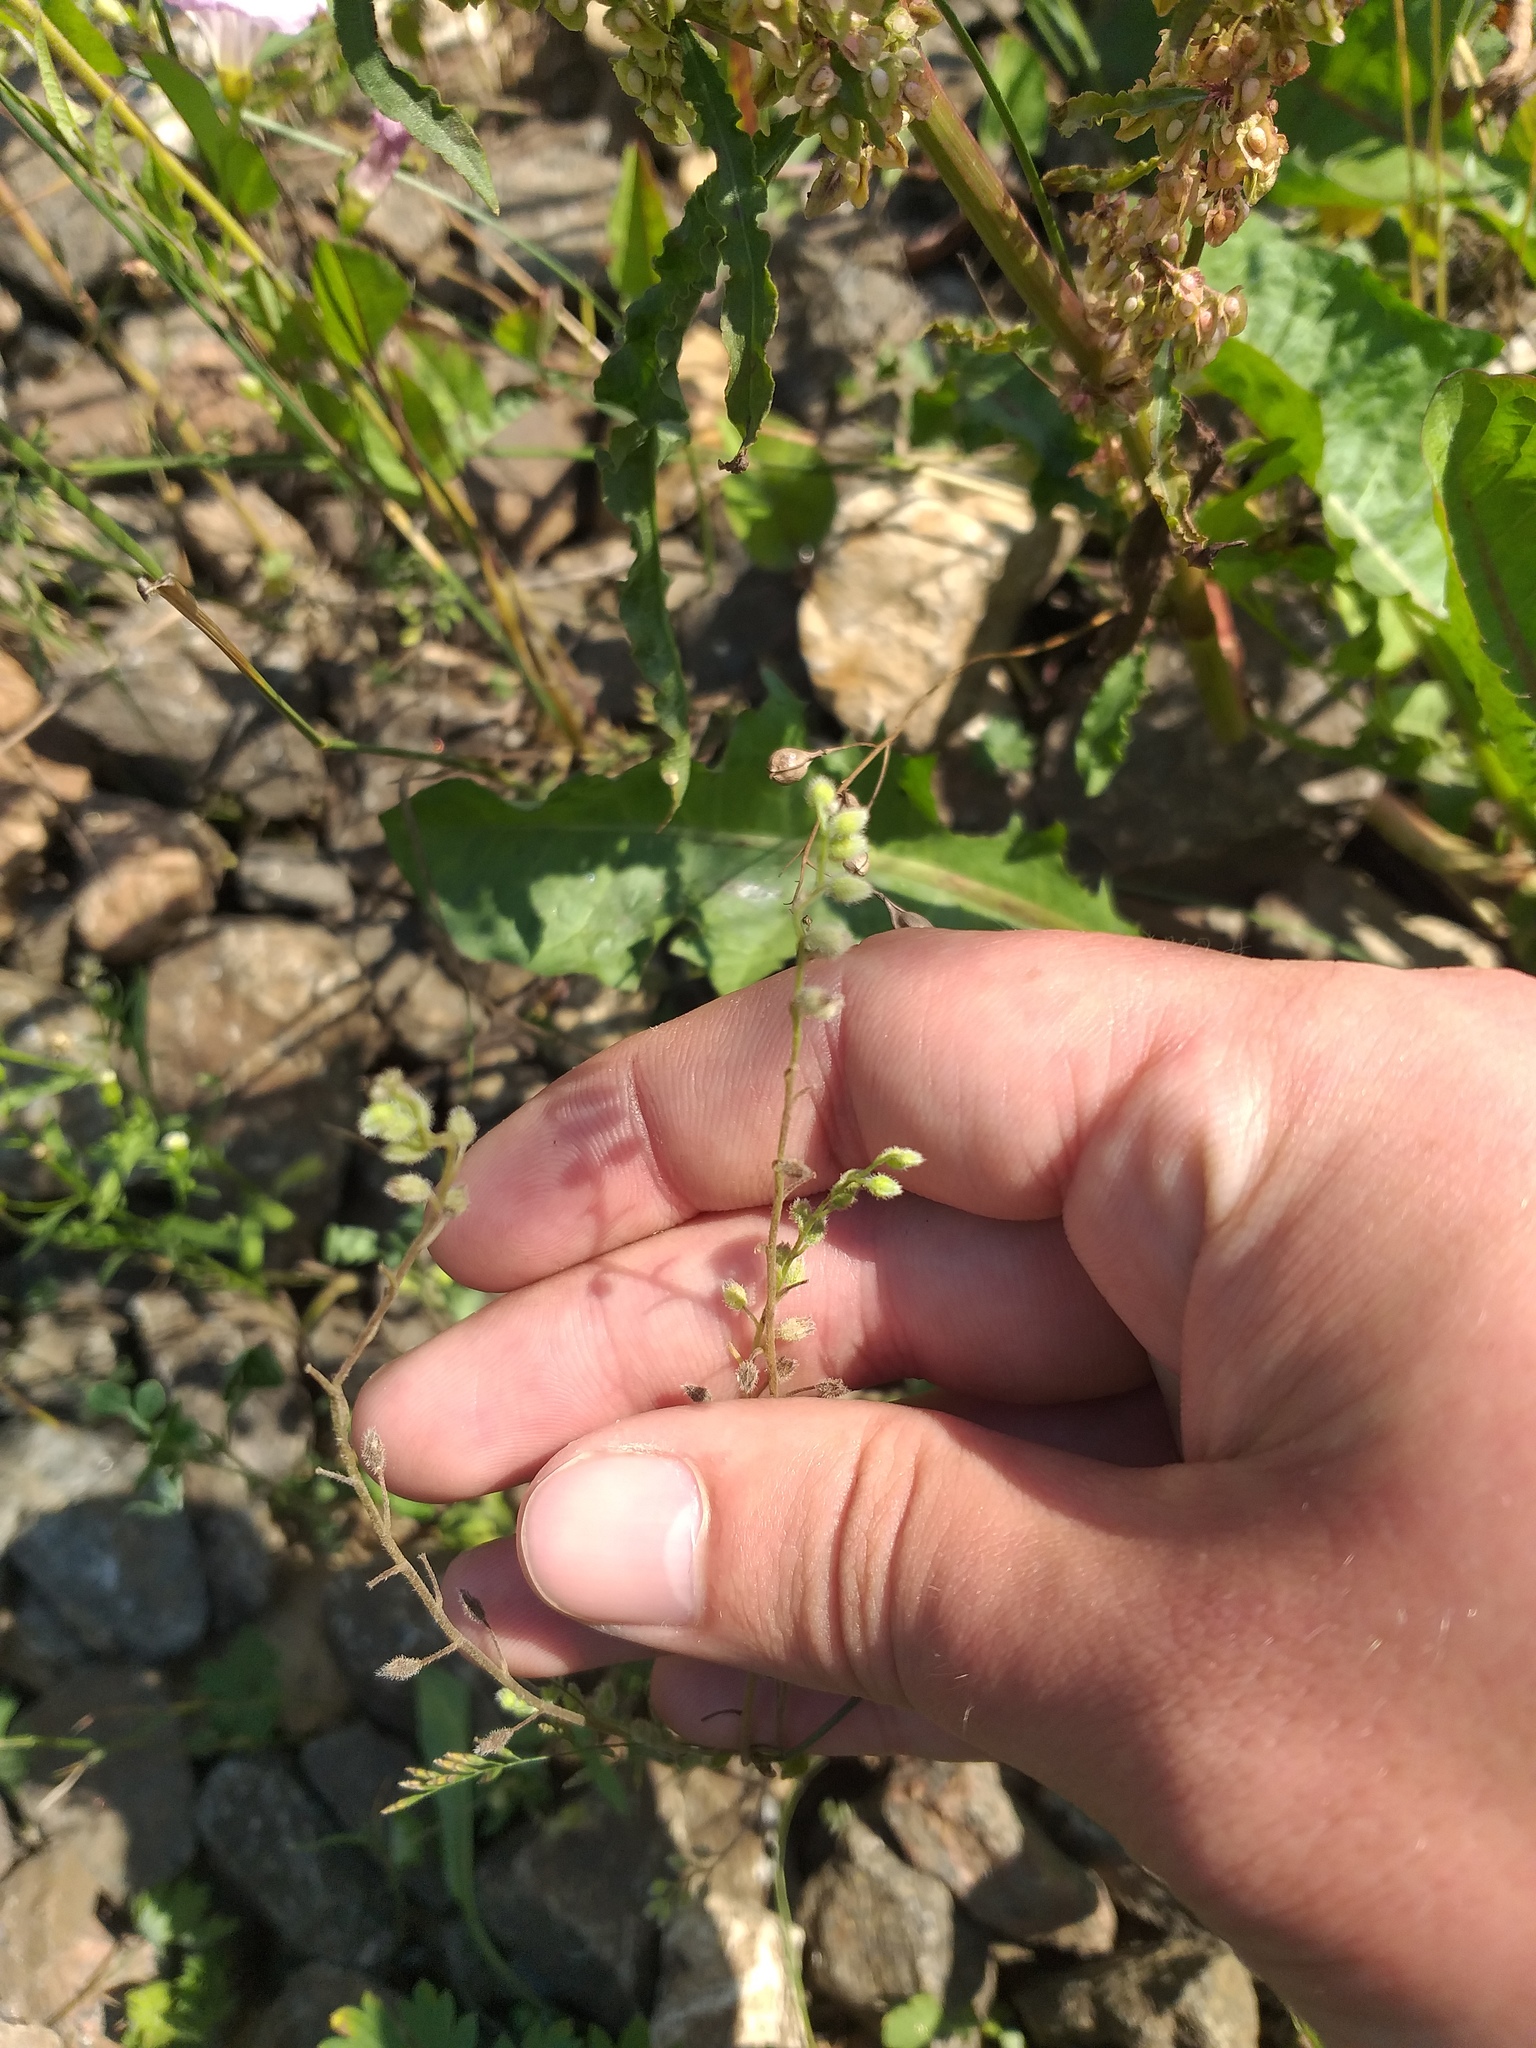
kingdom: Plantae
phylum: Tracheophyta
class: Magnoliopsida
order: Boraginales
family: Boraginaceae
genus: Myosotis
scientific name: Myosotis arvensis
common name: Field forget-me-not
